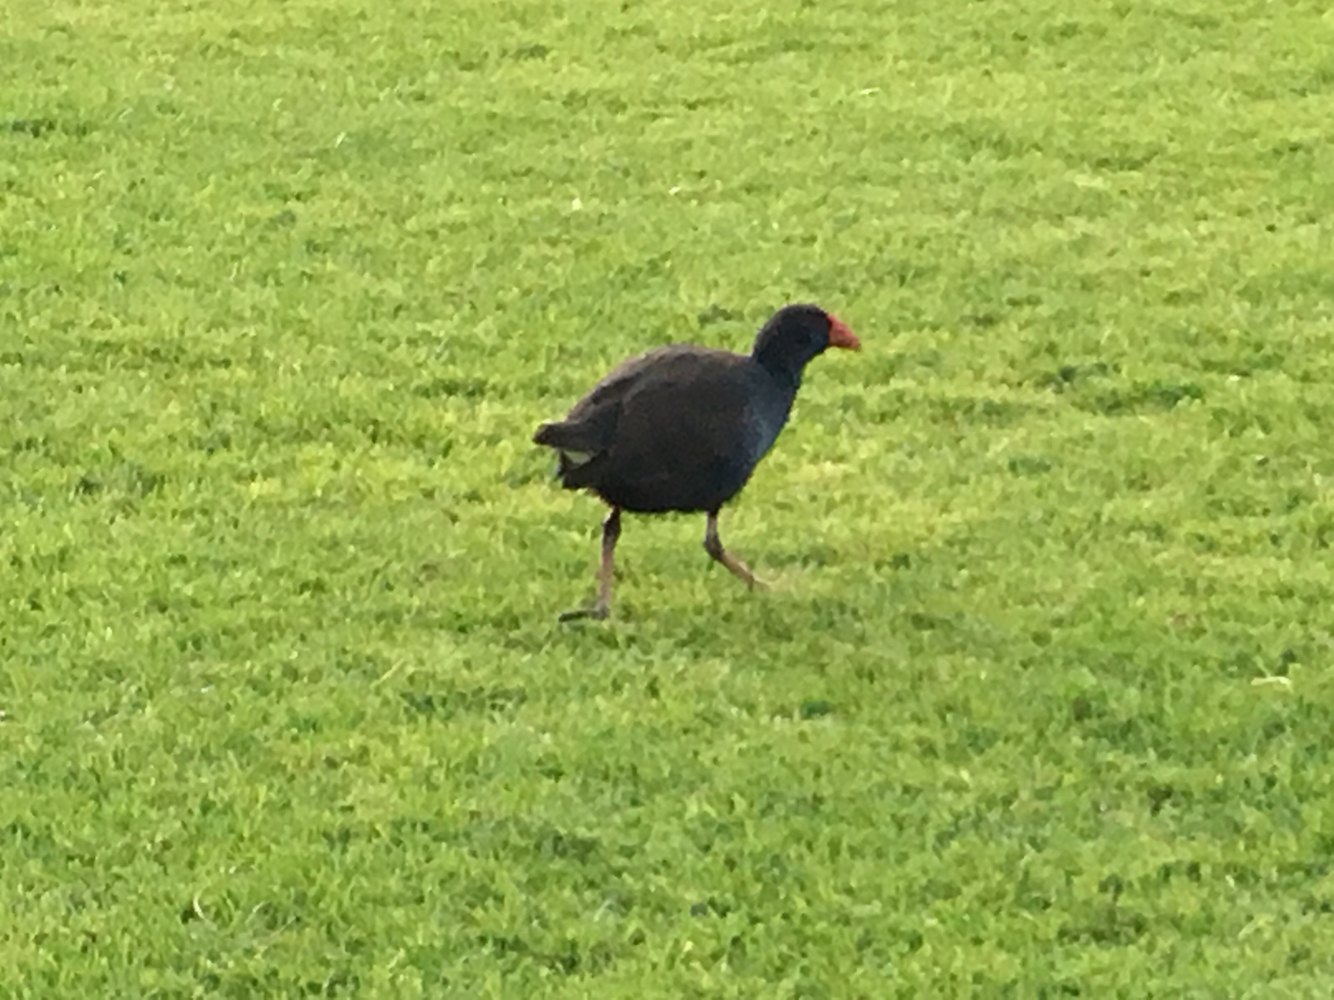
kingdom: Animalia
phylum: Chordata
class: Aves
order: Gruiformes
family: Rallidae
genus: Porphyrio
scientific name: Porphyrio melanotus
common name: Australasian swamphen
